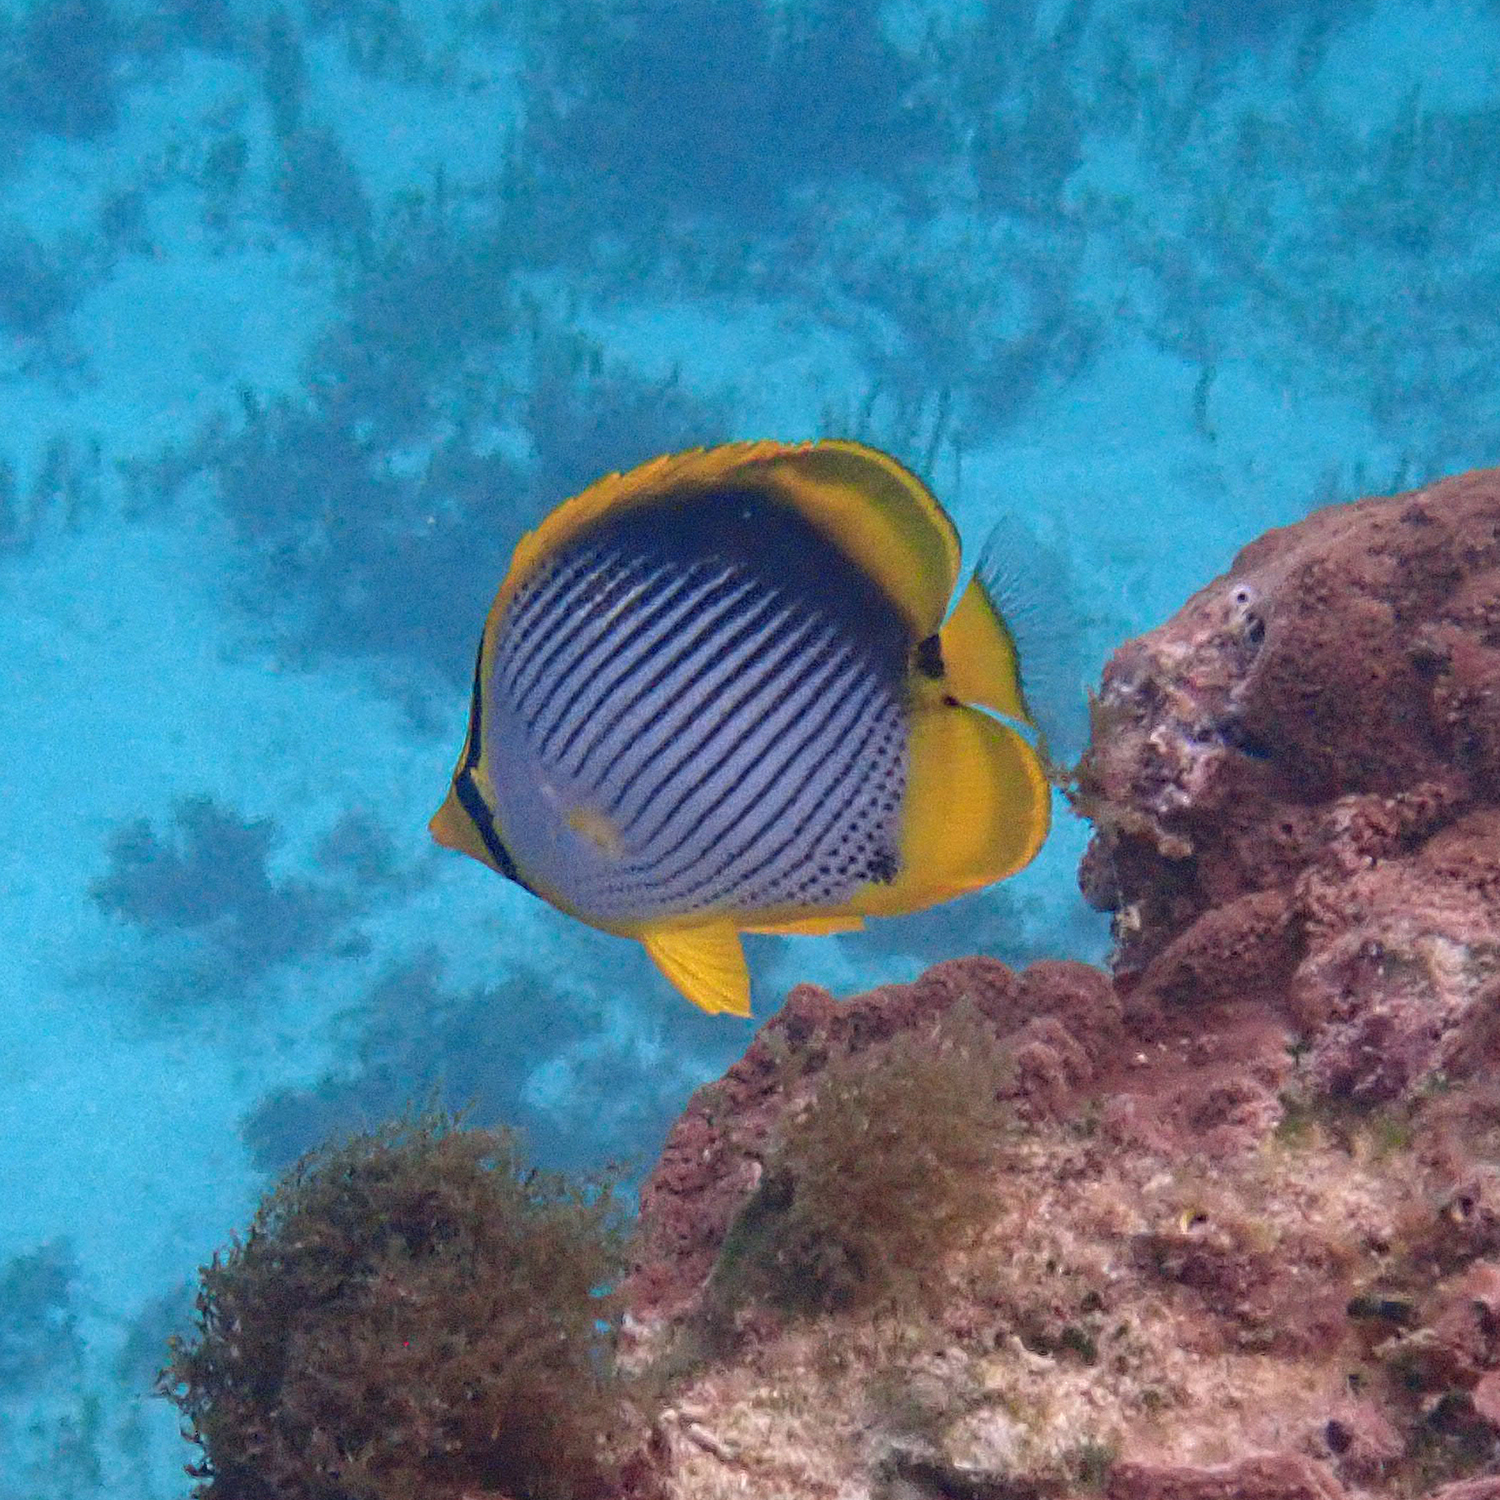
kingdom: Animalia
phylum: Chordata
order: Perciformes
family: Chaetodontidae
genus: Chaetodon
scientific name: Chaetodon melannotus
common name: Blackback butterflyfish
